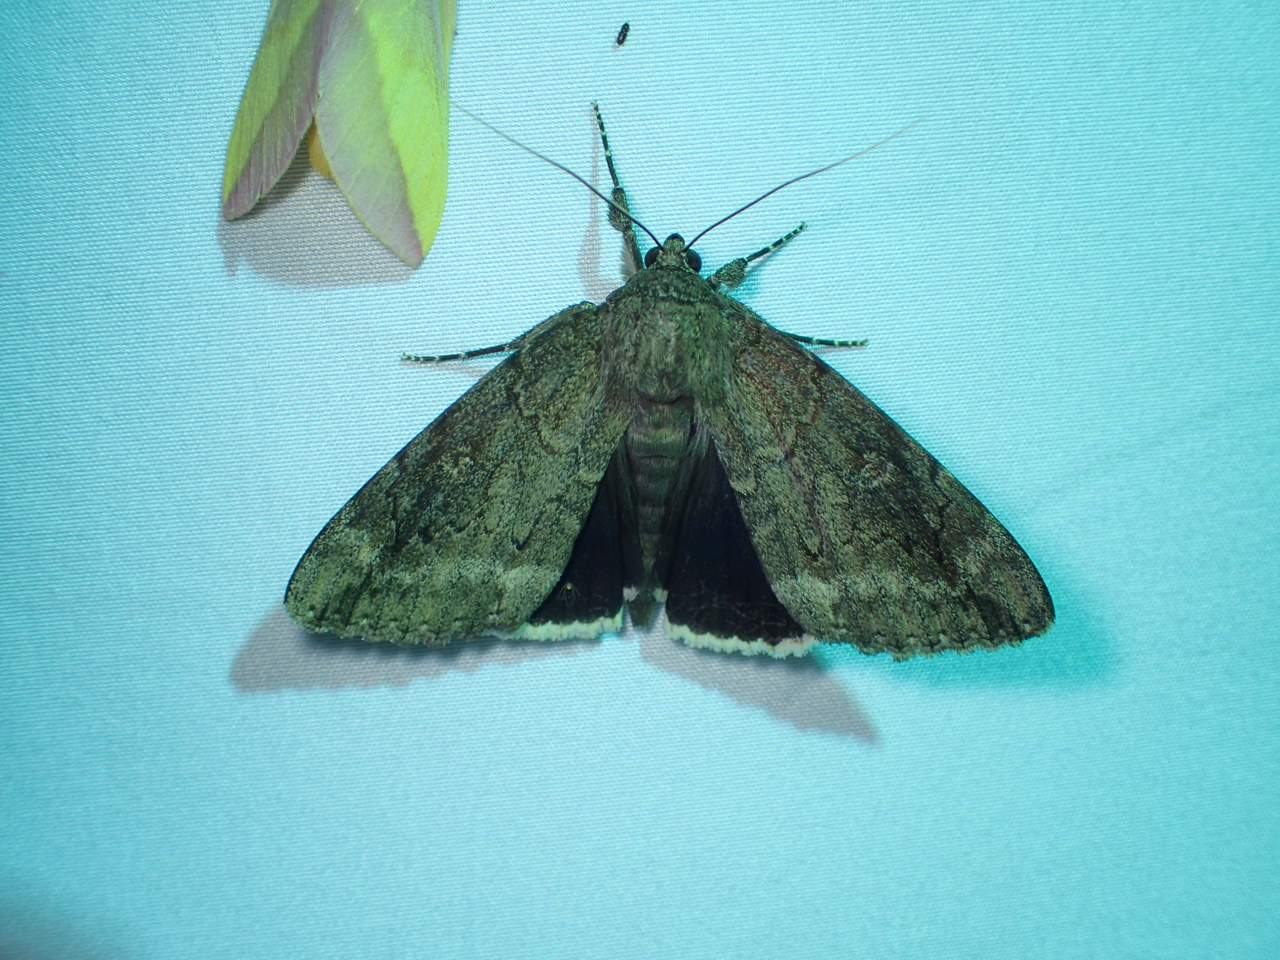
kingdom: Animalia
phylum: Arthropoda
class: Insecta
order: Lepidoptera
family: Erebidae
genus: Catocala
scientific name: Catocala obscura
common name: Obscure underwing moth
